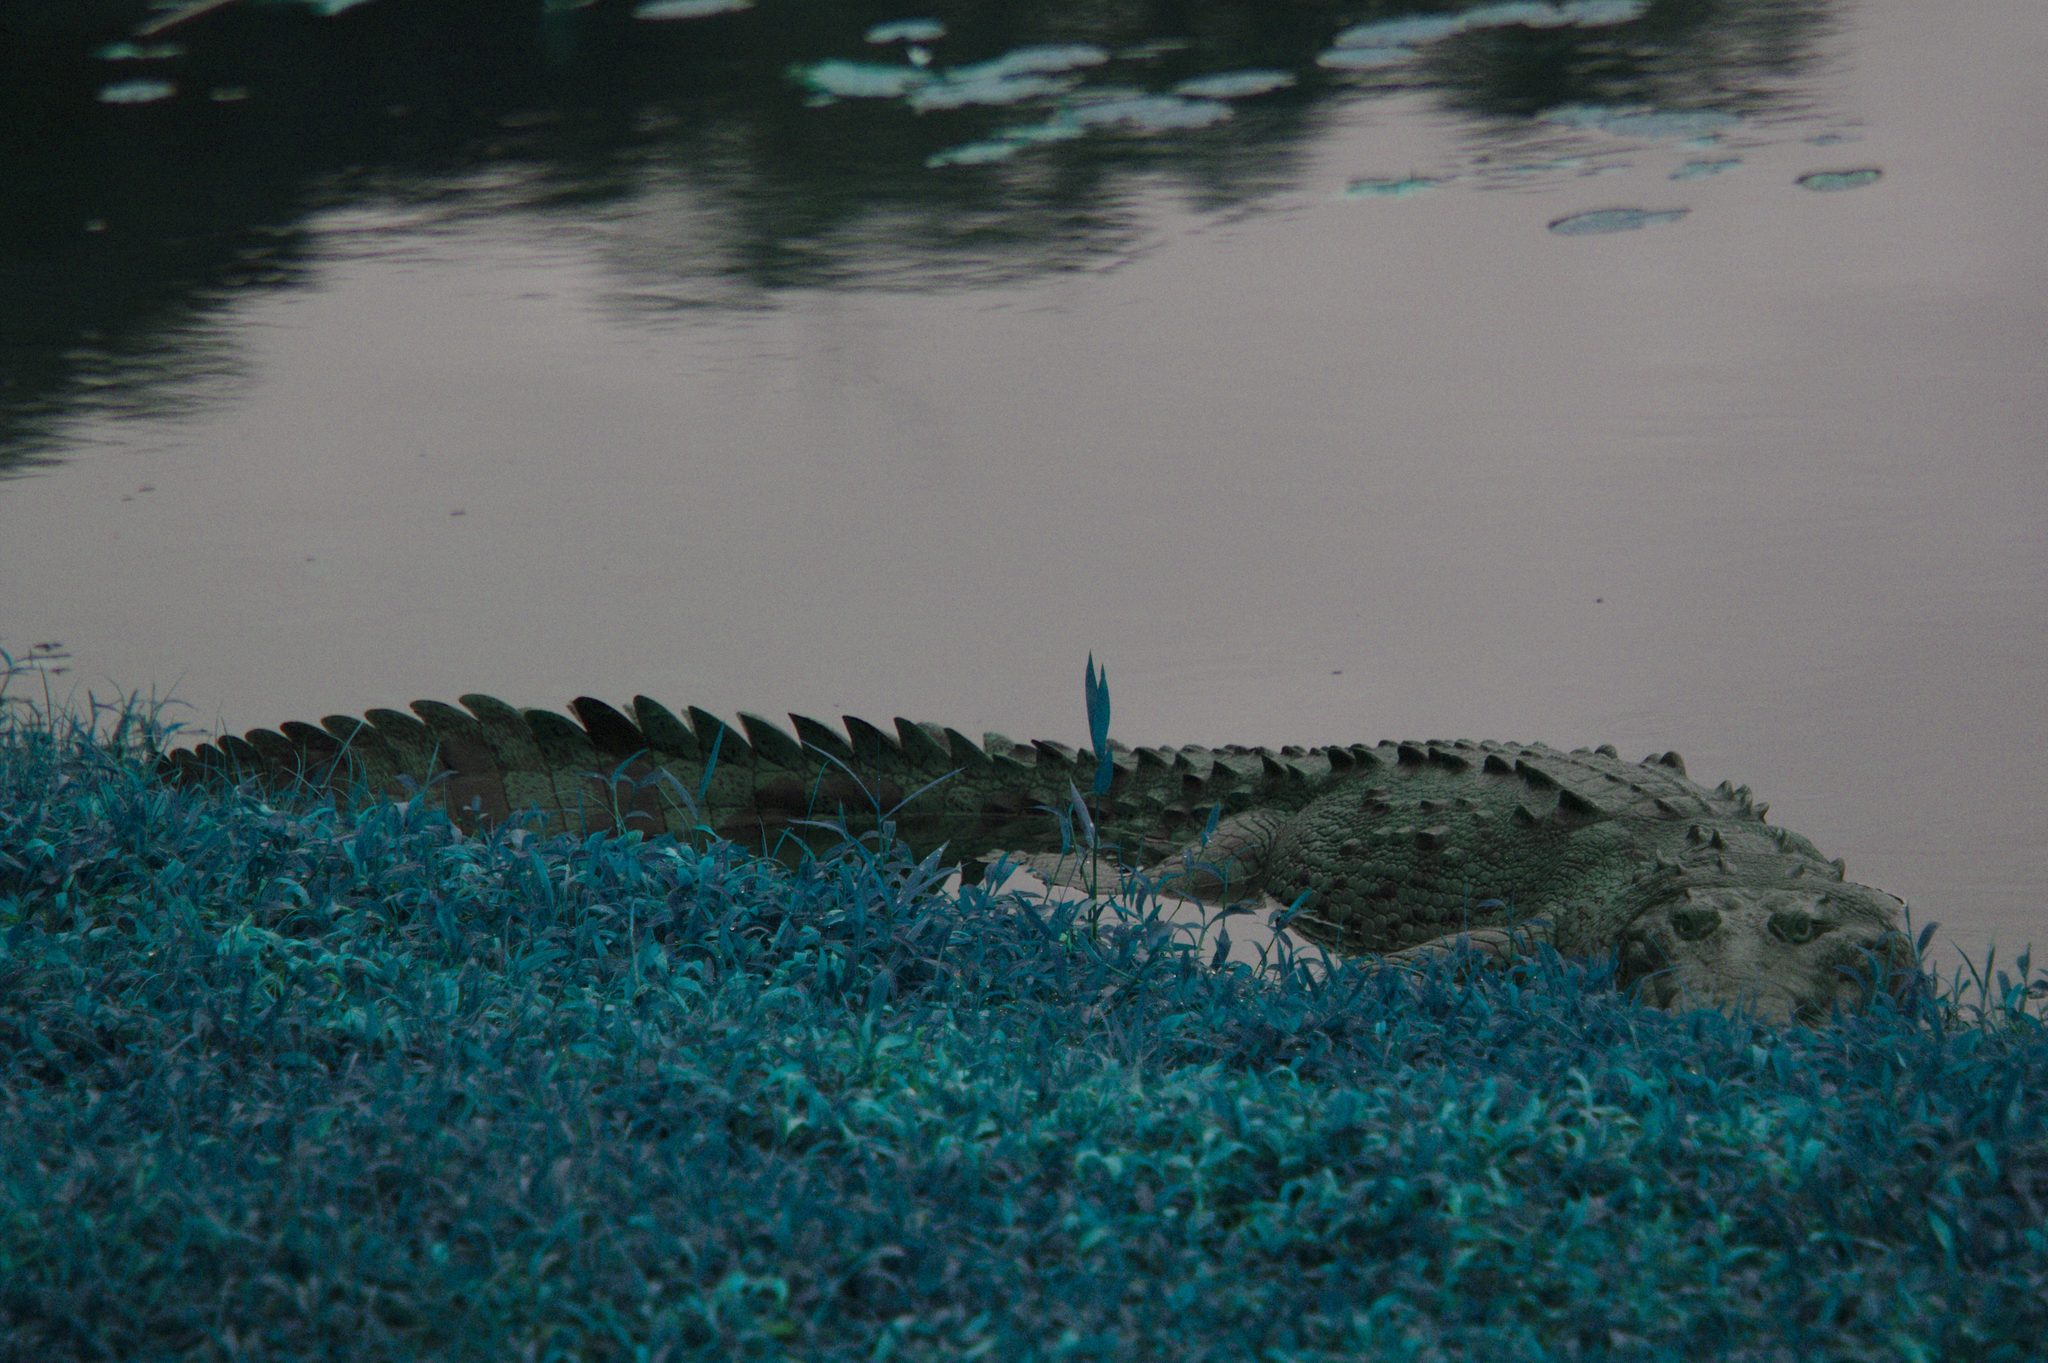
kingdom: Animalia
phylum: Chordata
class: Crocodylia
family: Crocodylidae
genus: Crocodylus
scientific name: Crocodylus acutus
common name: American crocodile
